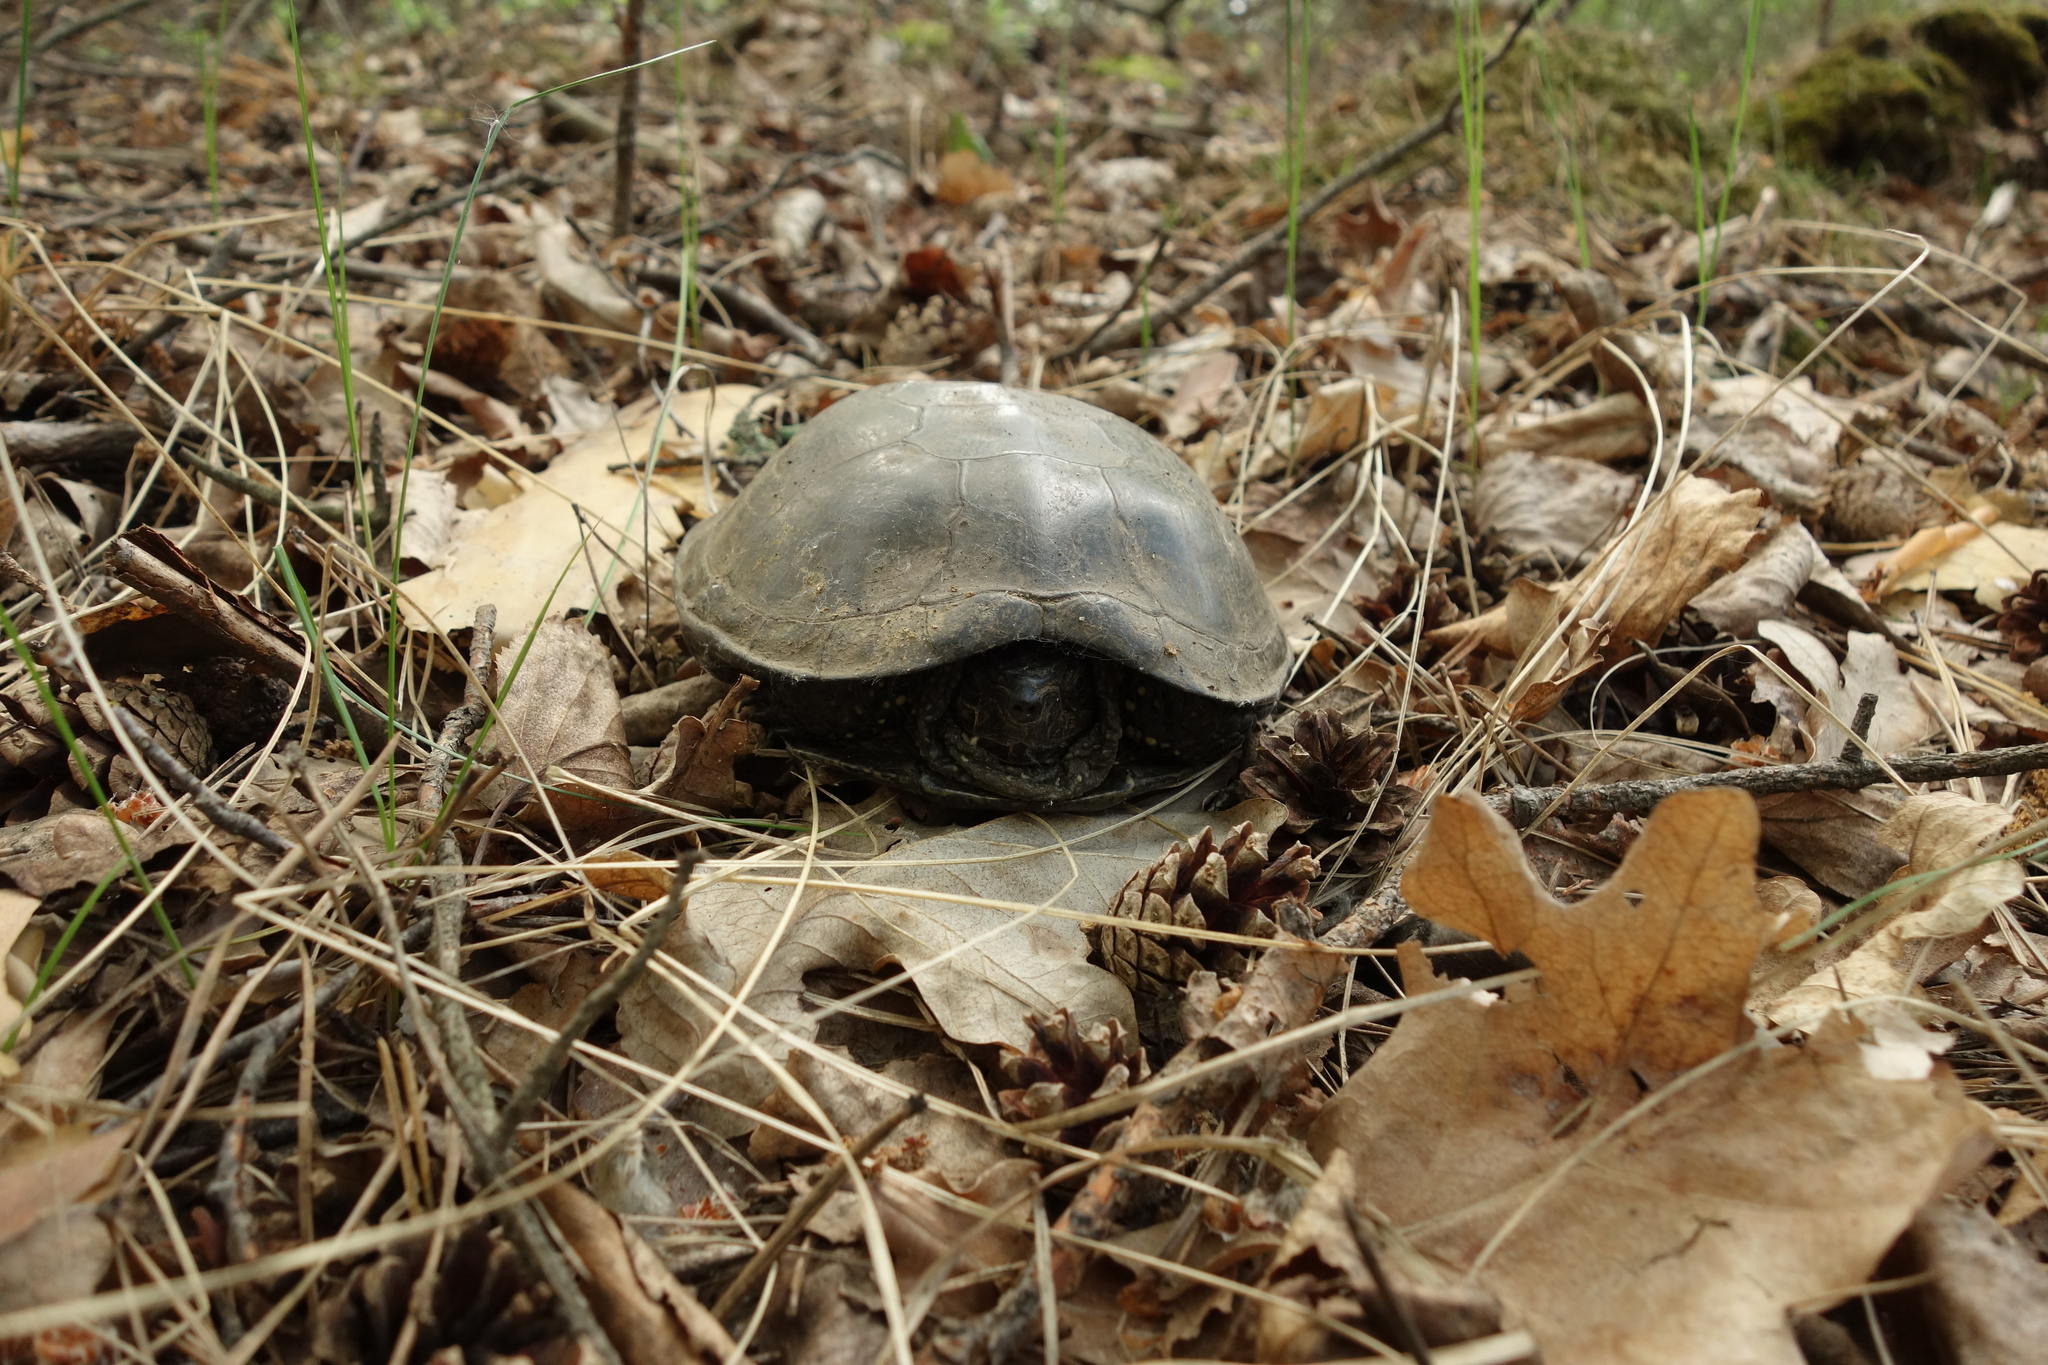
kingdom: Animalia
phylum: Chordata
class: Testudines
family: Emydidae
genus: Emys
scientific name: Emys orbicularis
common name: European pond turtle
